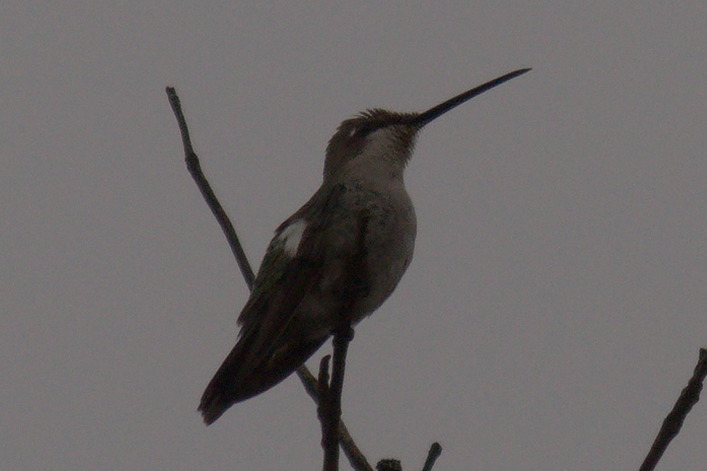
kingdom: Animalia
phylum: Chordata
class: Aves
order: Apodiformes
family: Trochilidae
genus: Heliomaster
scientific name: Heliomaster furcifer
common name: Blue-tufted starthroat
